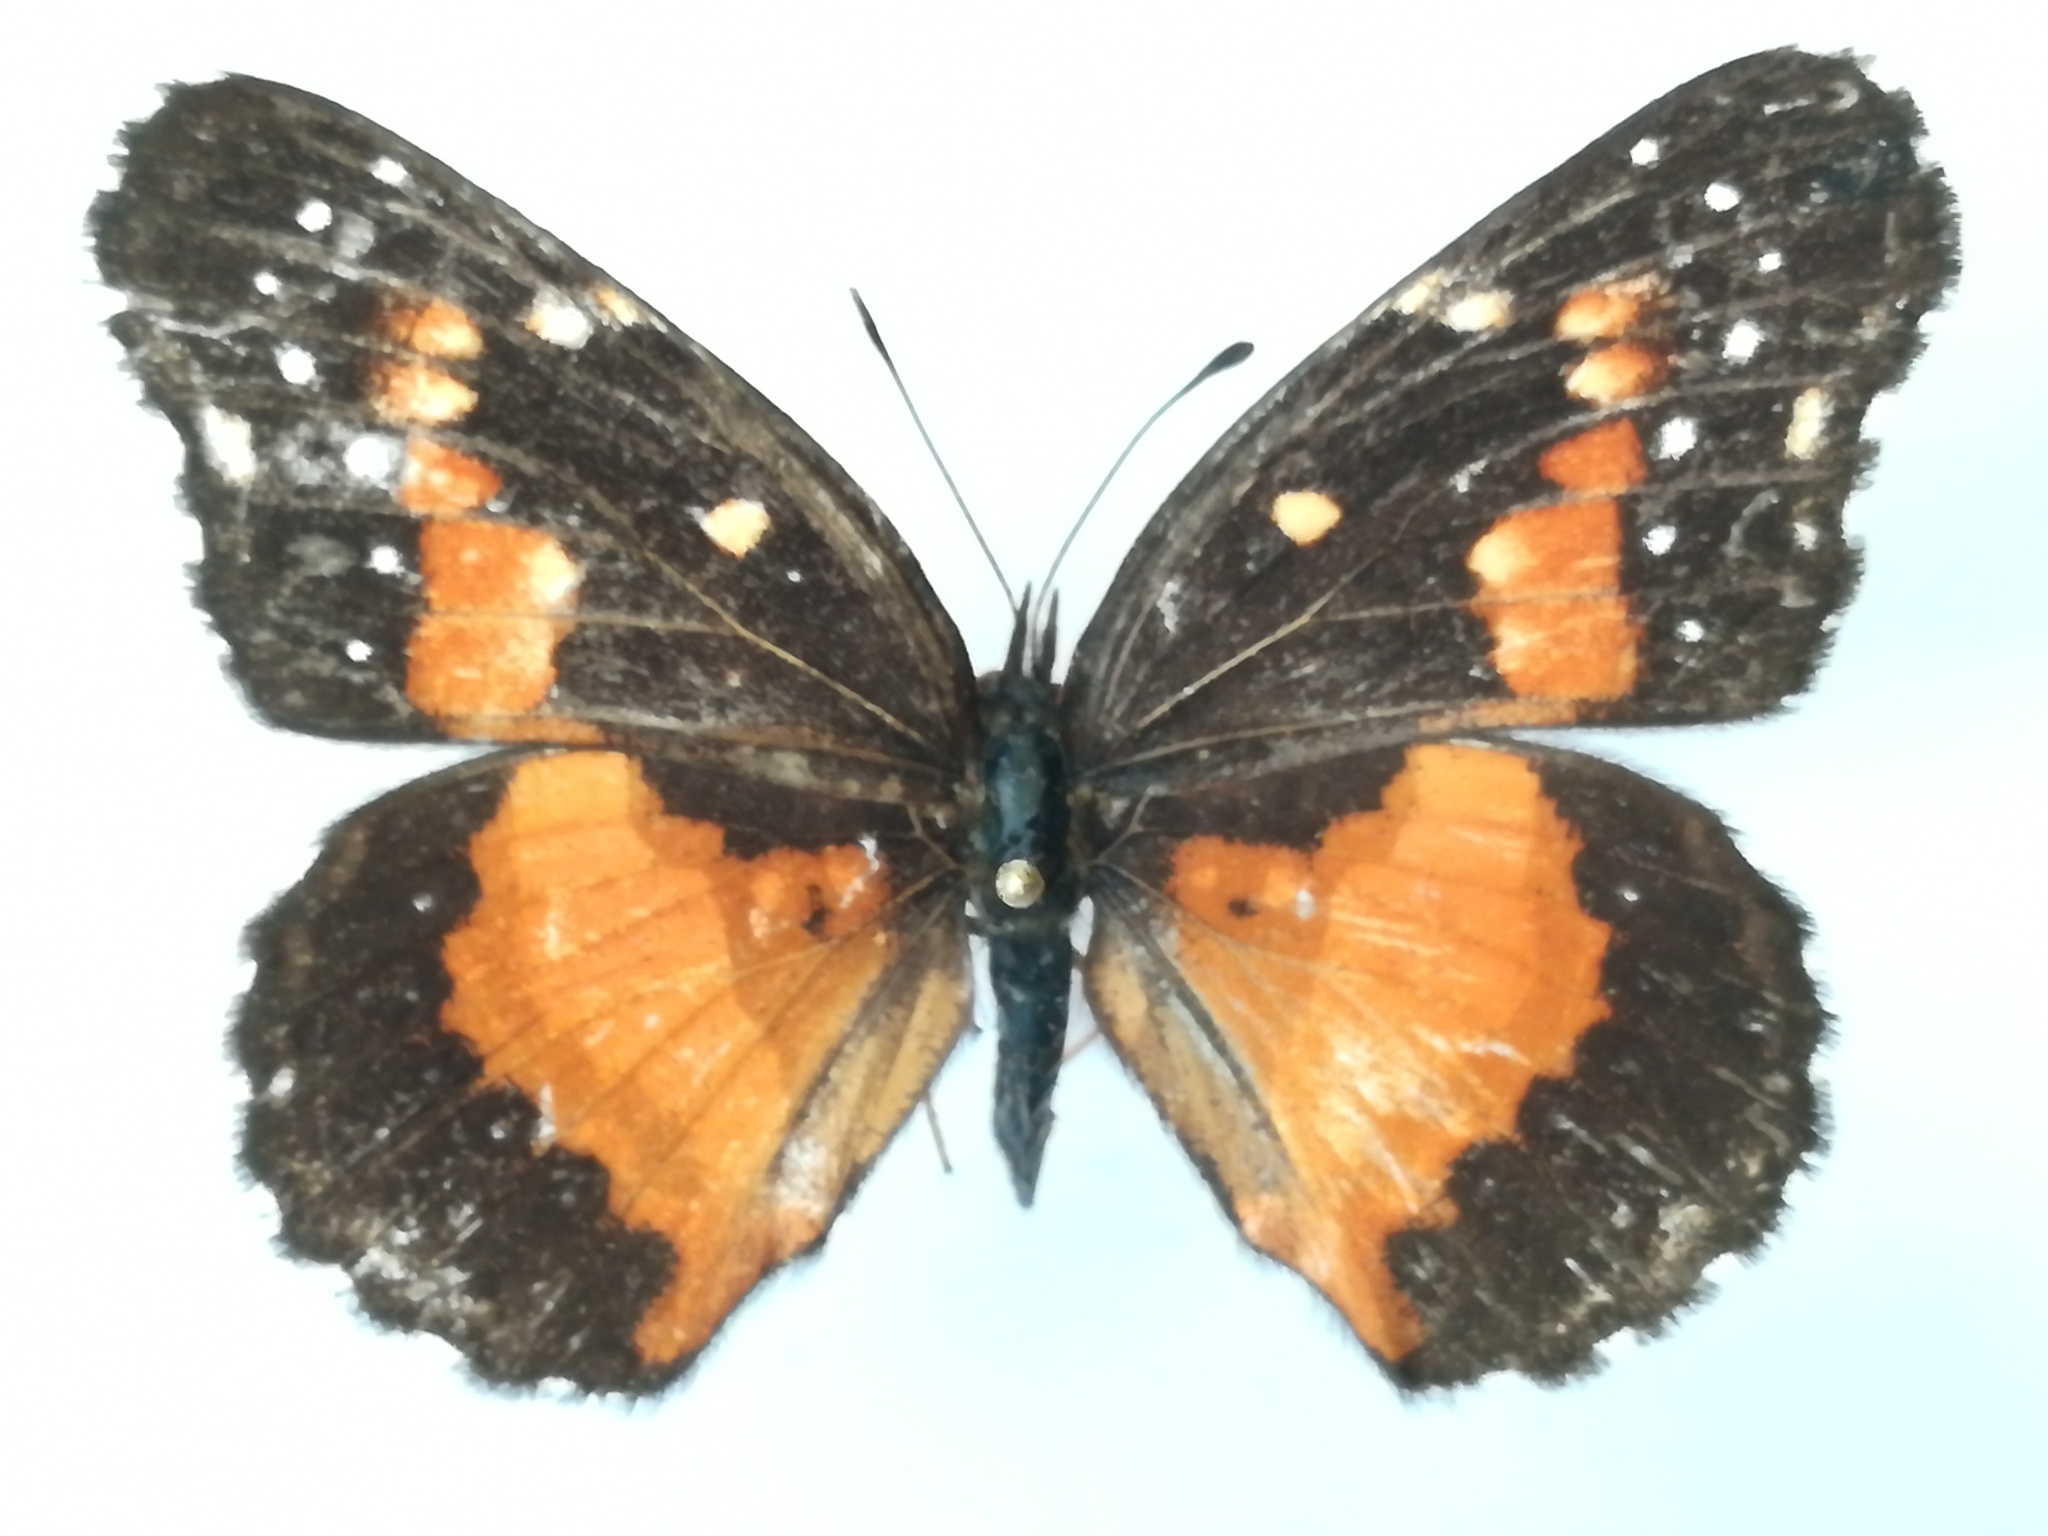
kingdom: Animalia
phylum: Arthropoda
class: Insecta
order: Lepidoptera
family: Nymphalidae
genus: Chlosyne
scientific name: Chlosyne lacinia
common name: Bordered patch
